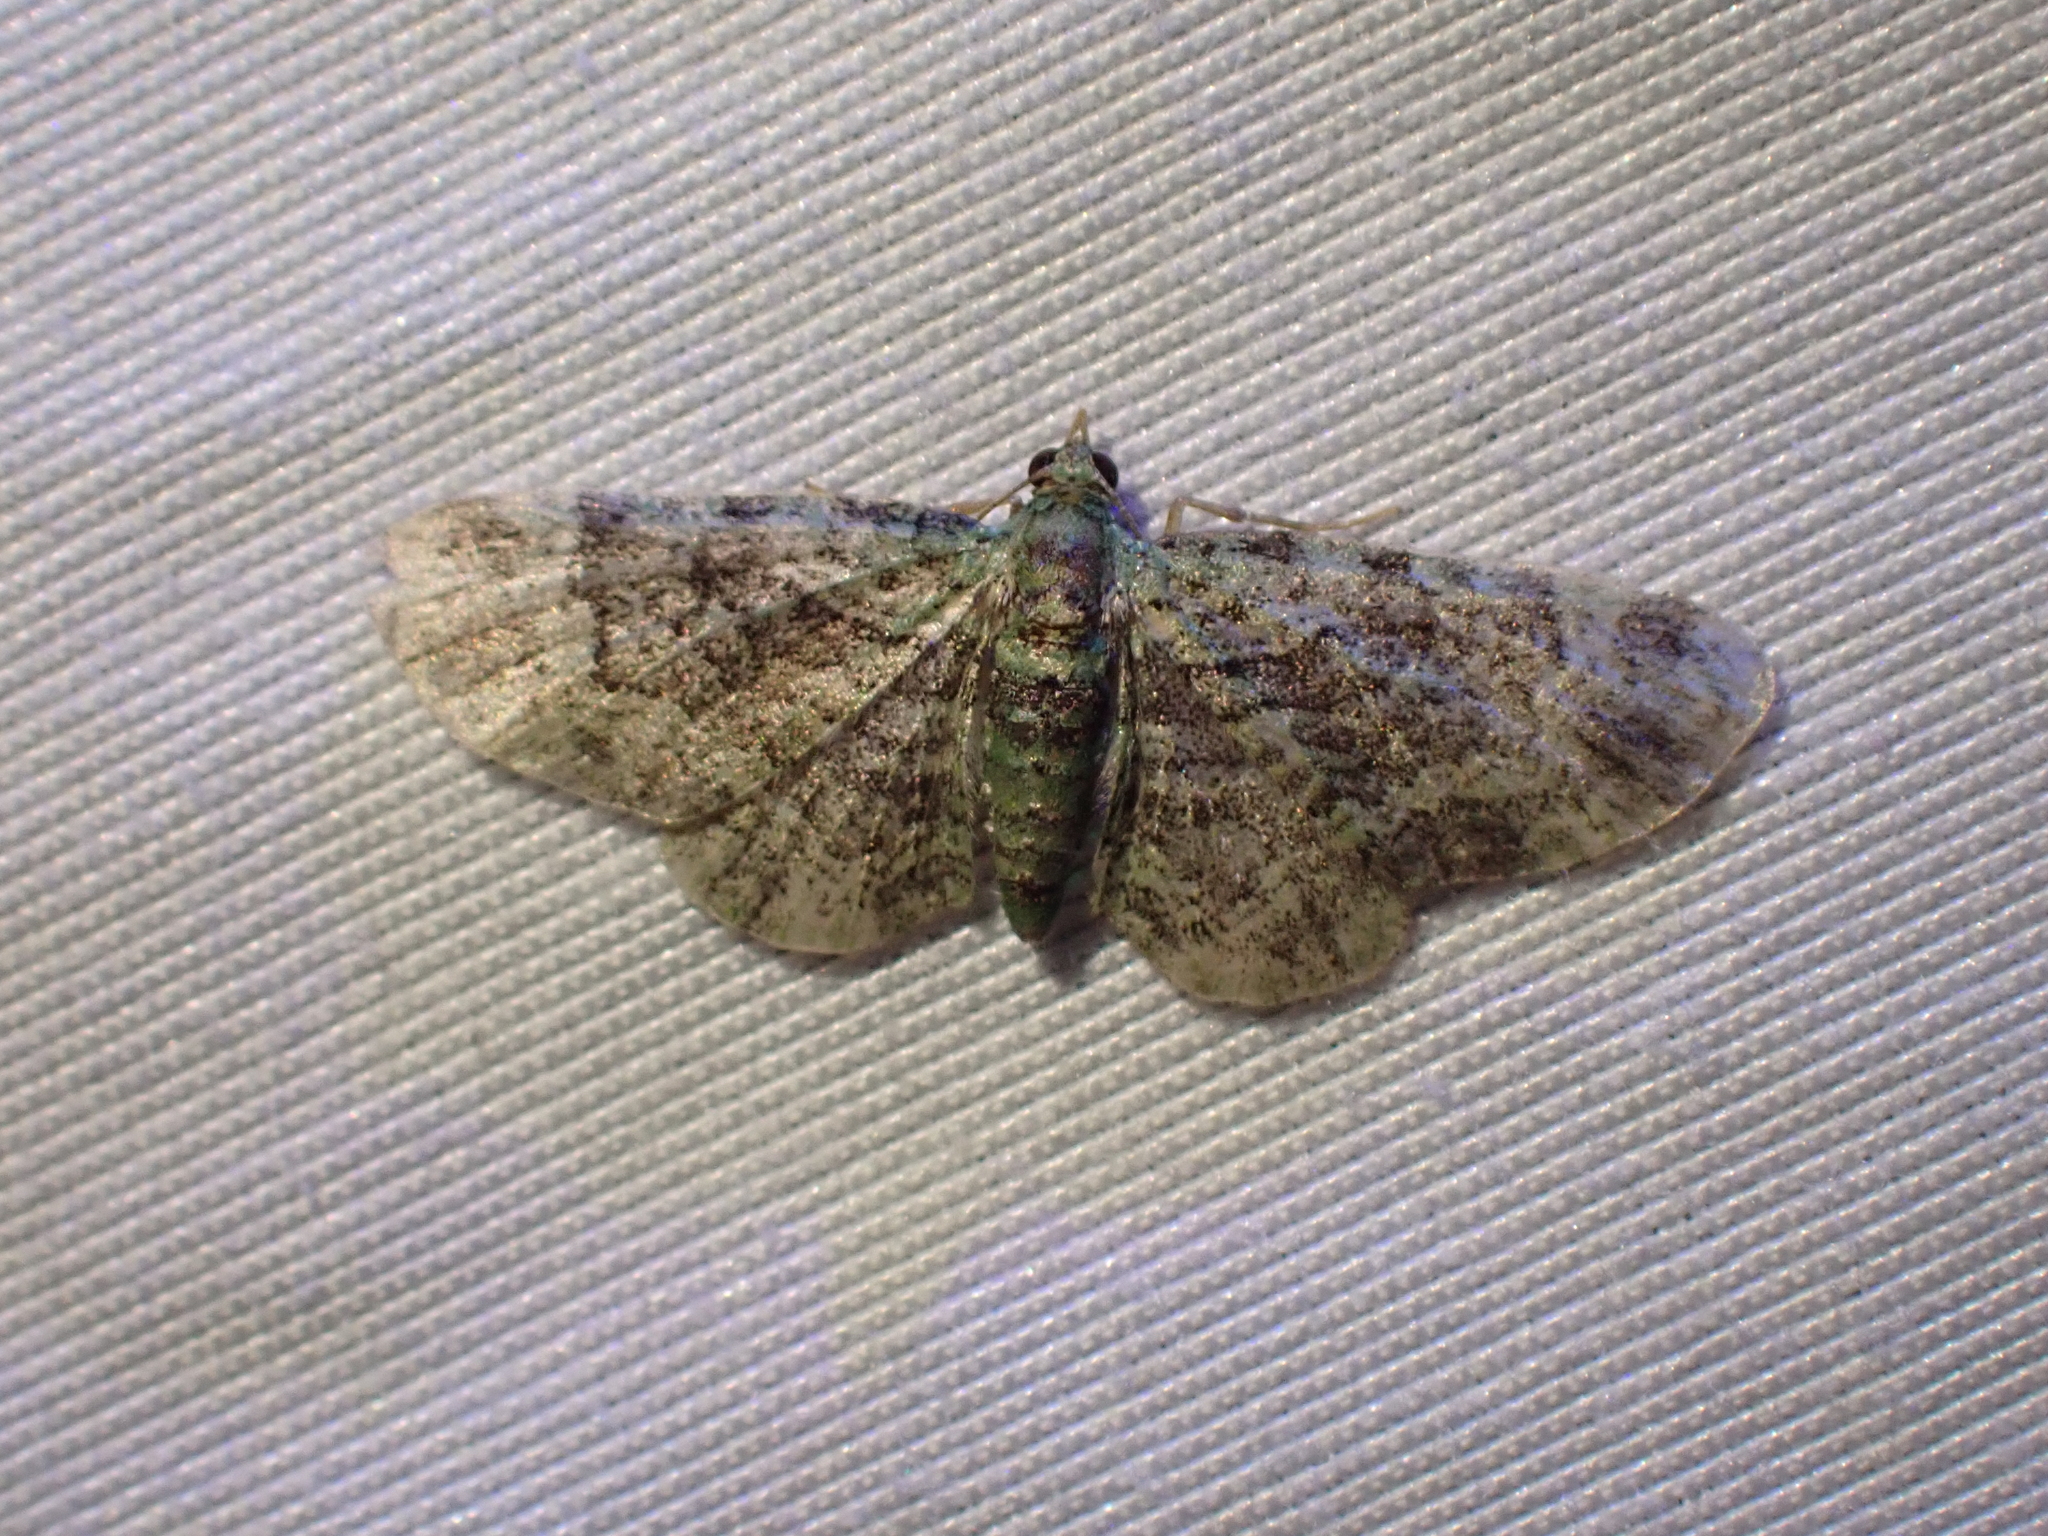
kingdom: Animalia
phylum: Arthropoda
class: Insecta
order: Lepidoptera
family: Geometridae
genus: Pasiphila
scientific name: Pasiphila rectangulata
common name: Green pug
